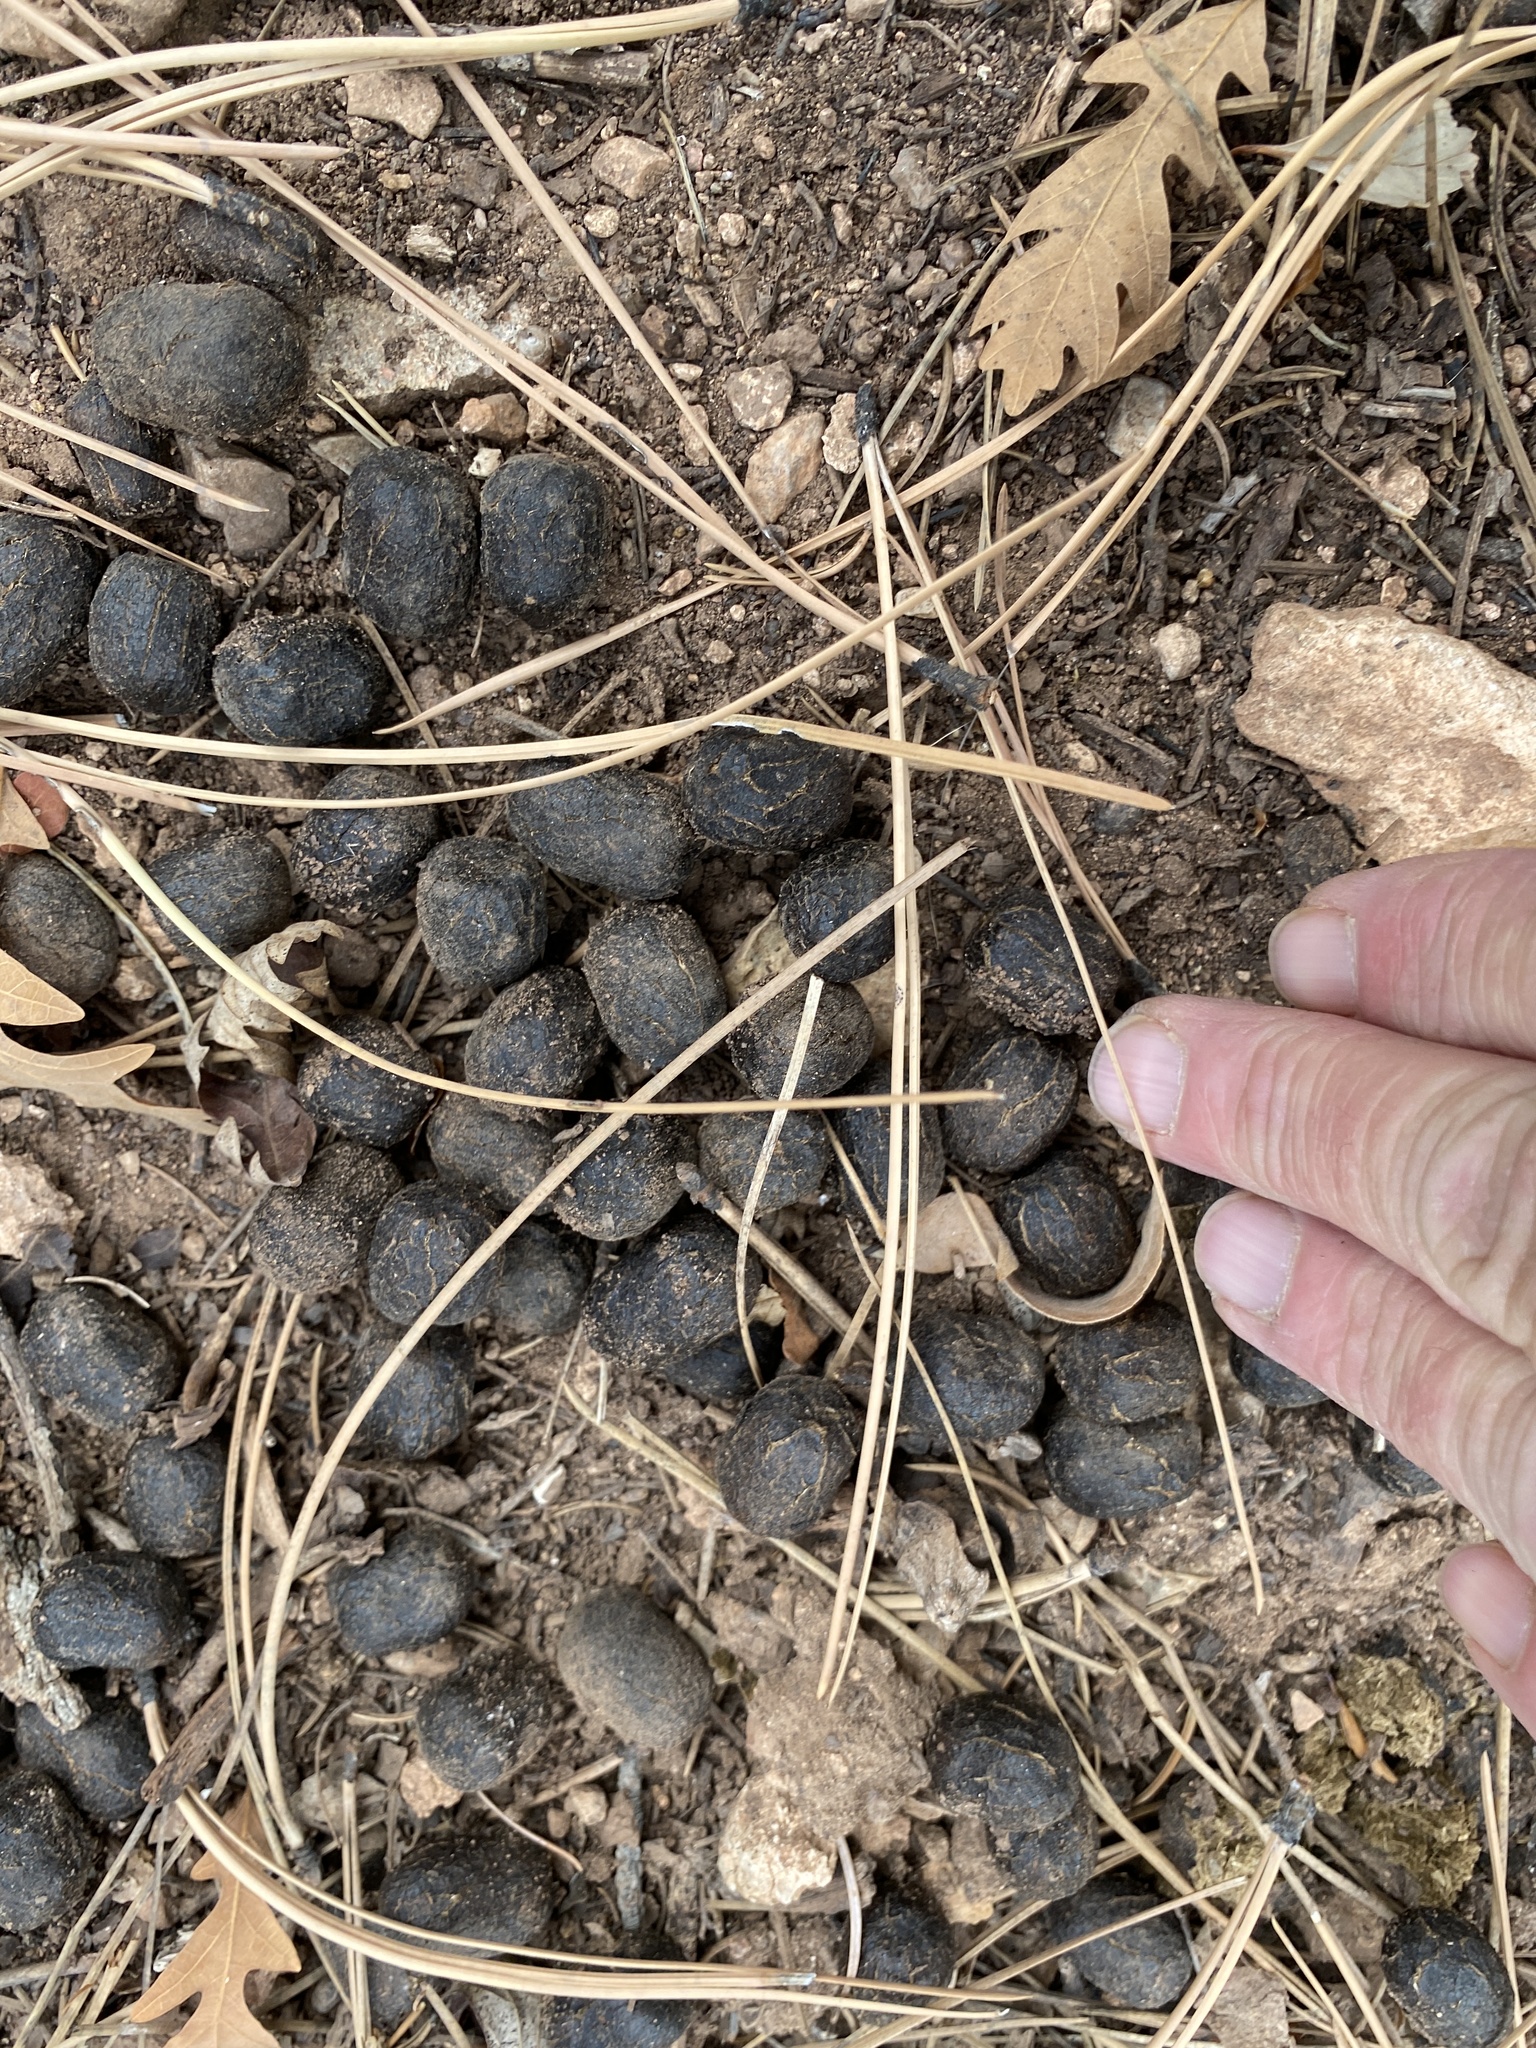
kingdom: Animalia
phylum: Chordata
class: Mammalia
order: Artiodactyla
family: Cervidae
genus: Cervus
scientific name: Cervus elaphus
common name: Red deer
